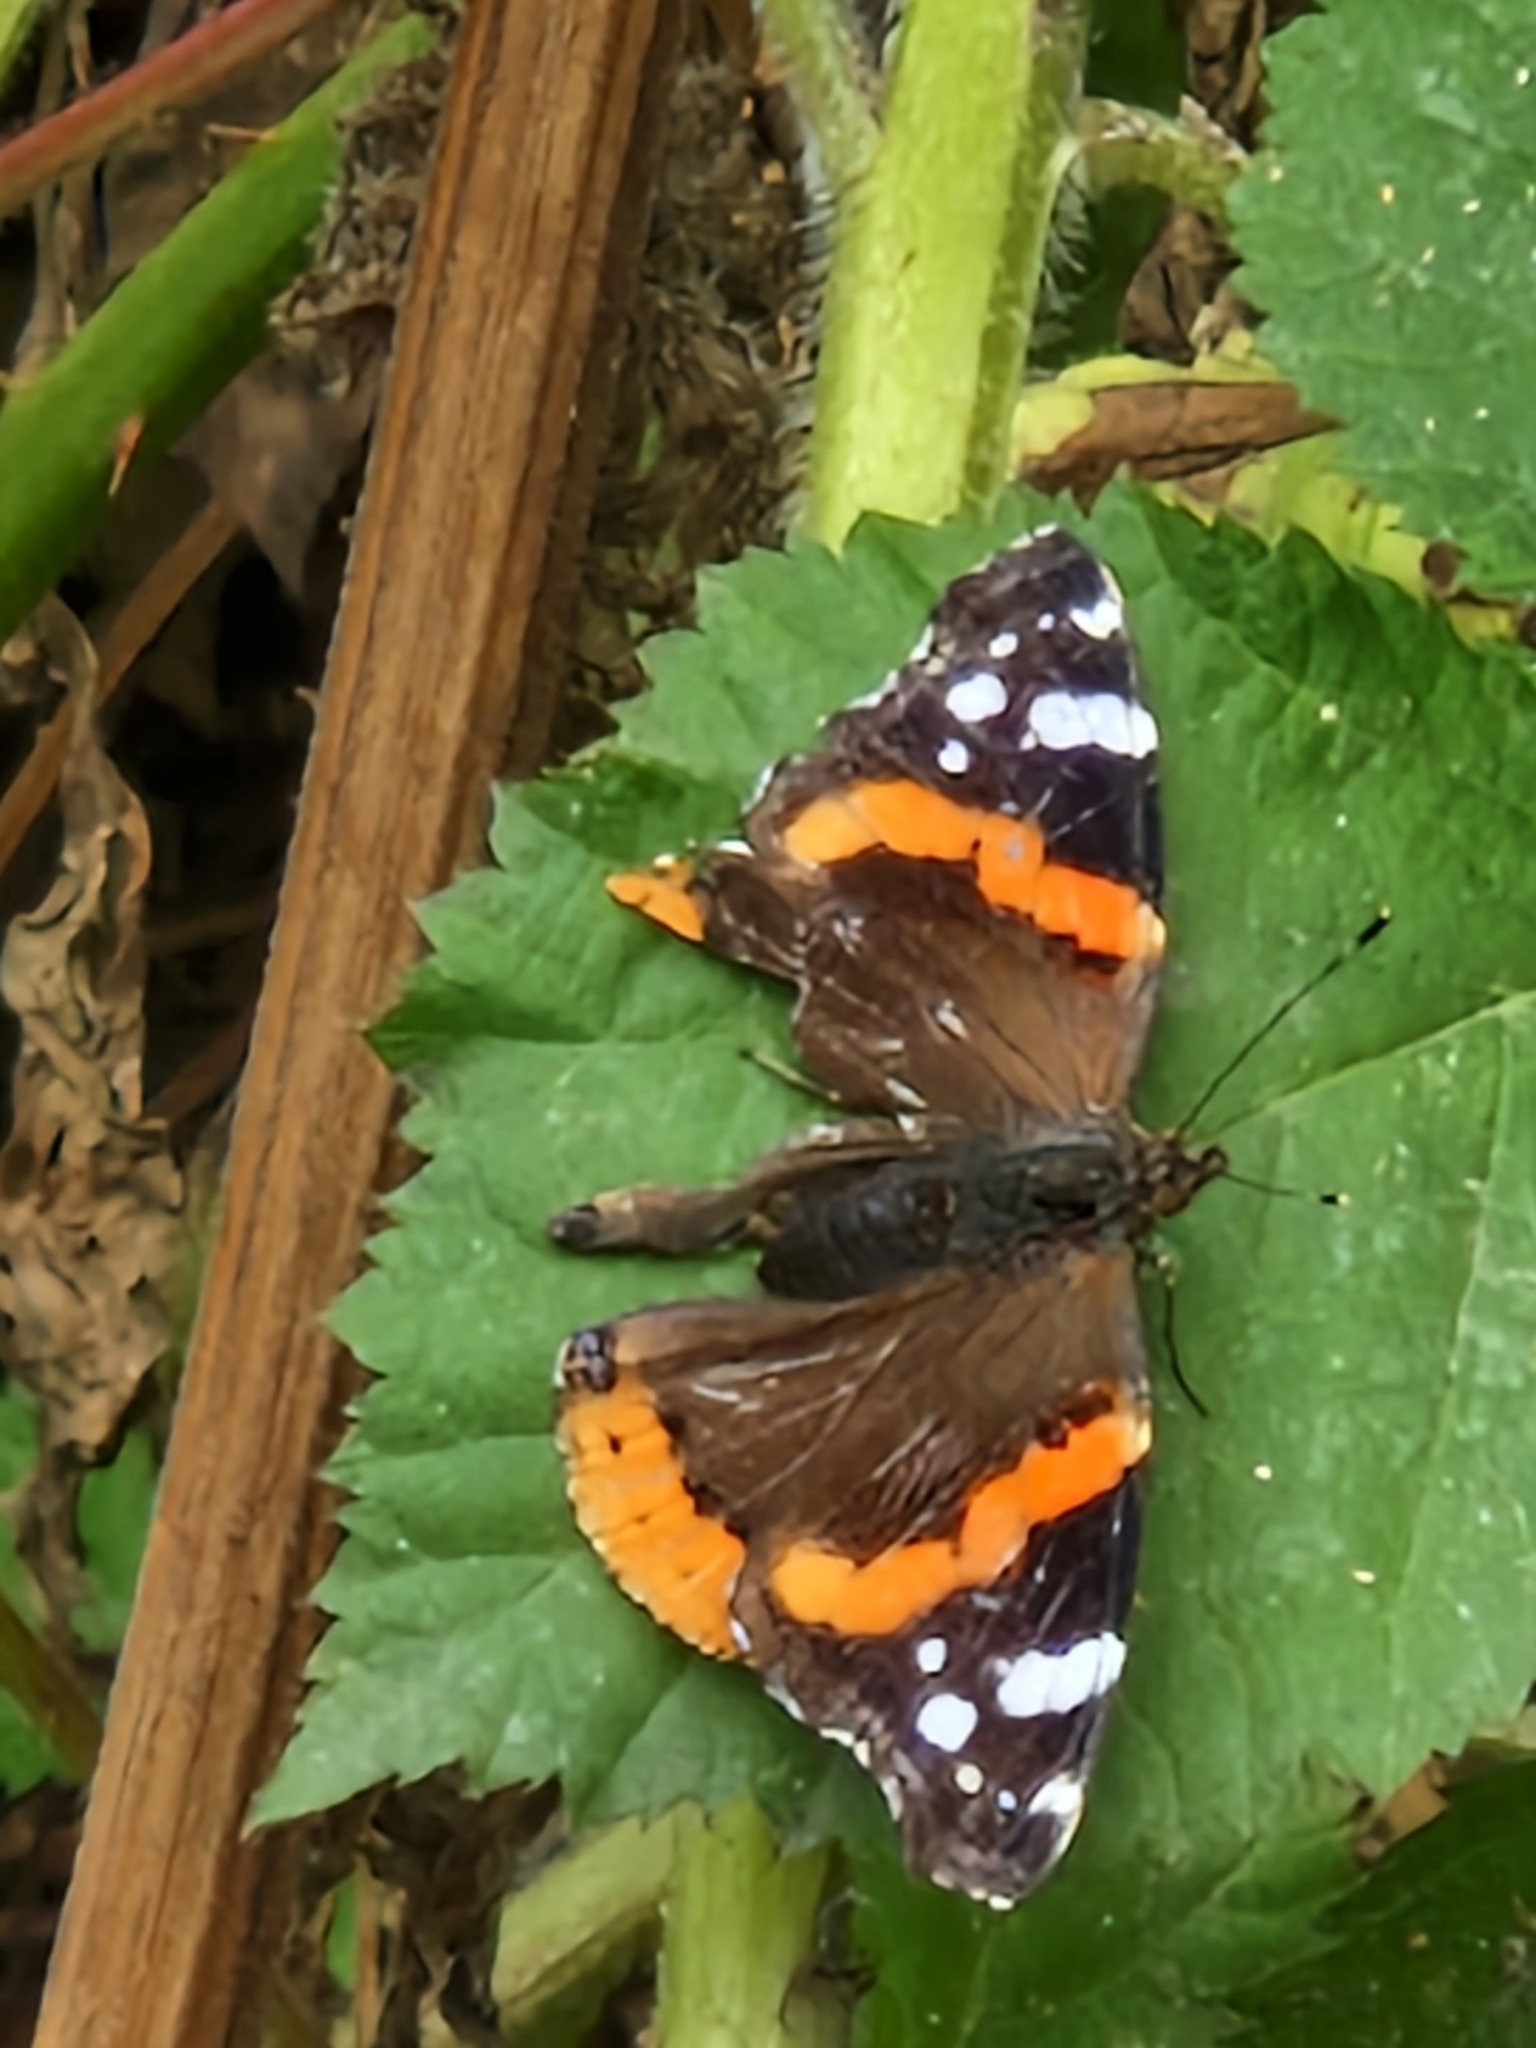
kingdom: Animalia
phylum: Arthropoda
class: Insecta
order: Lepidoptera
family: Nymphalidae
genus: Vanessa
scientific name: Vanessa atalanta
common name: Red admiral
